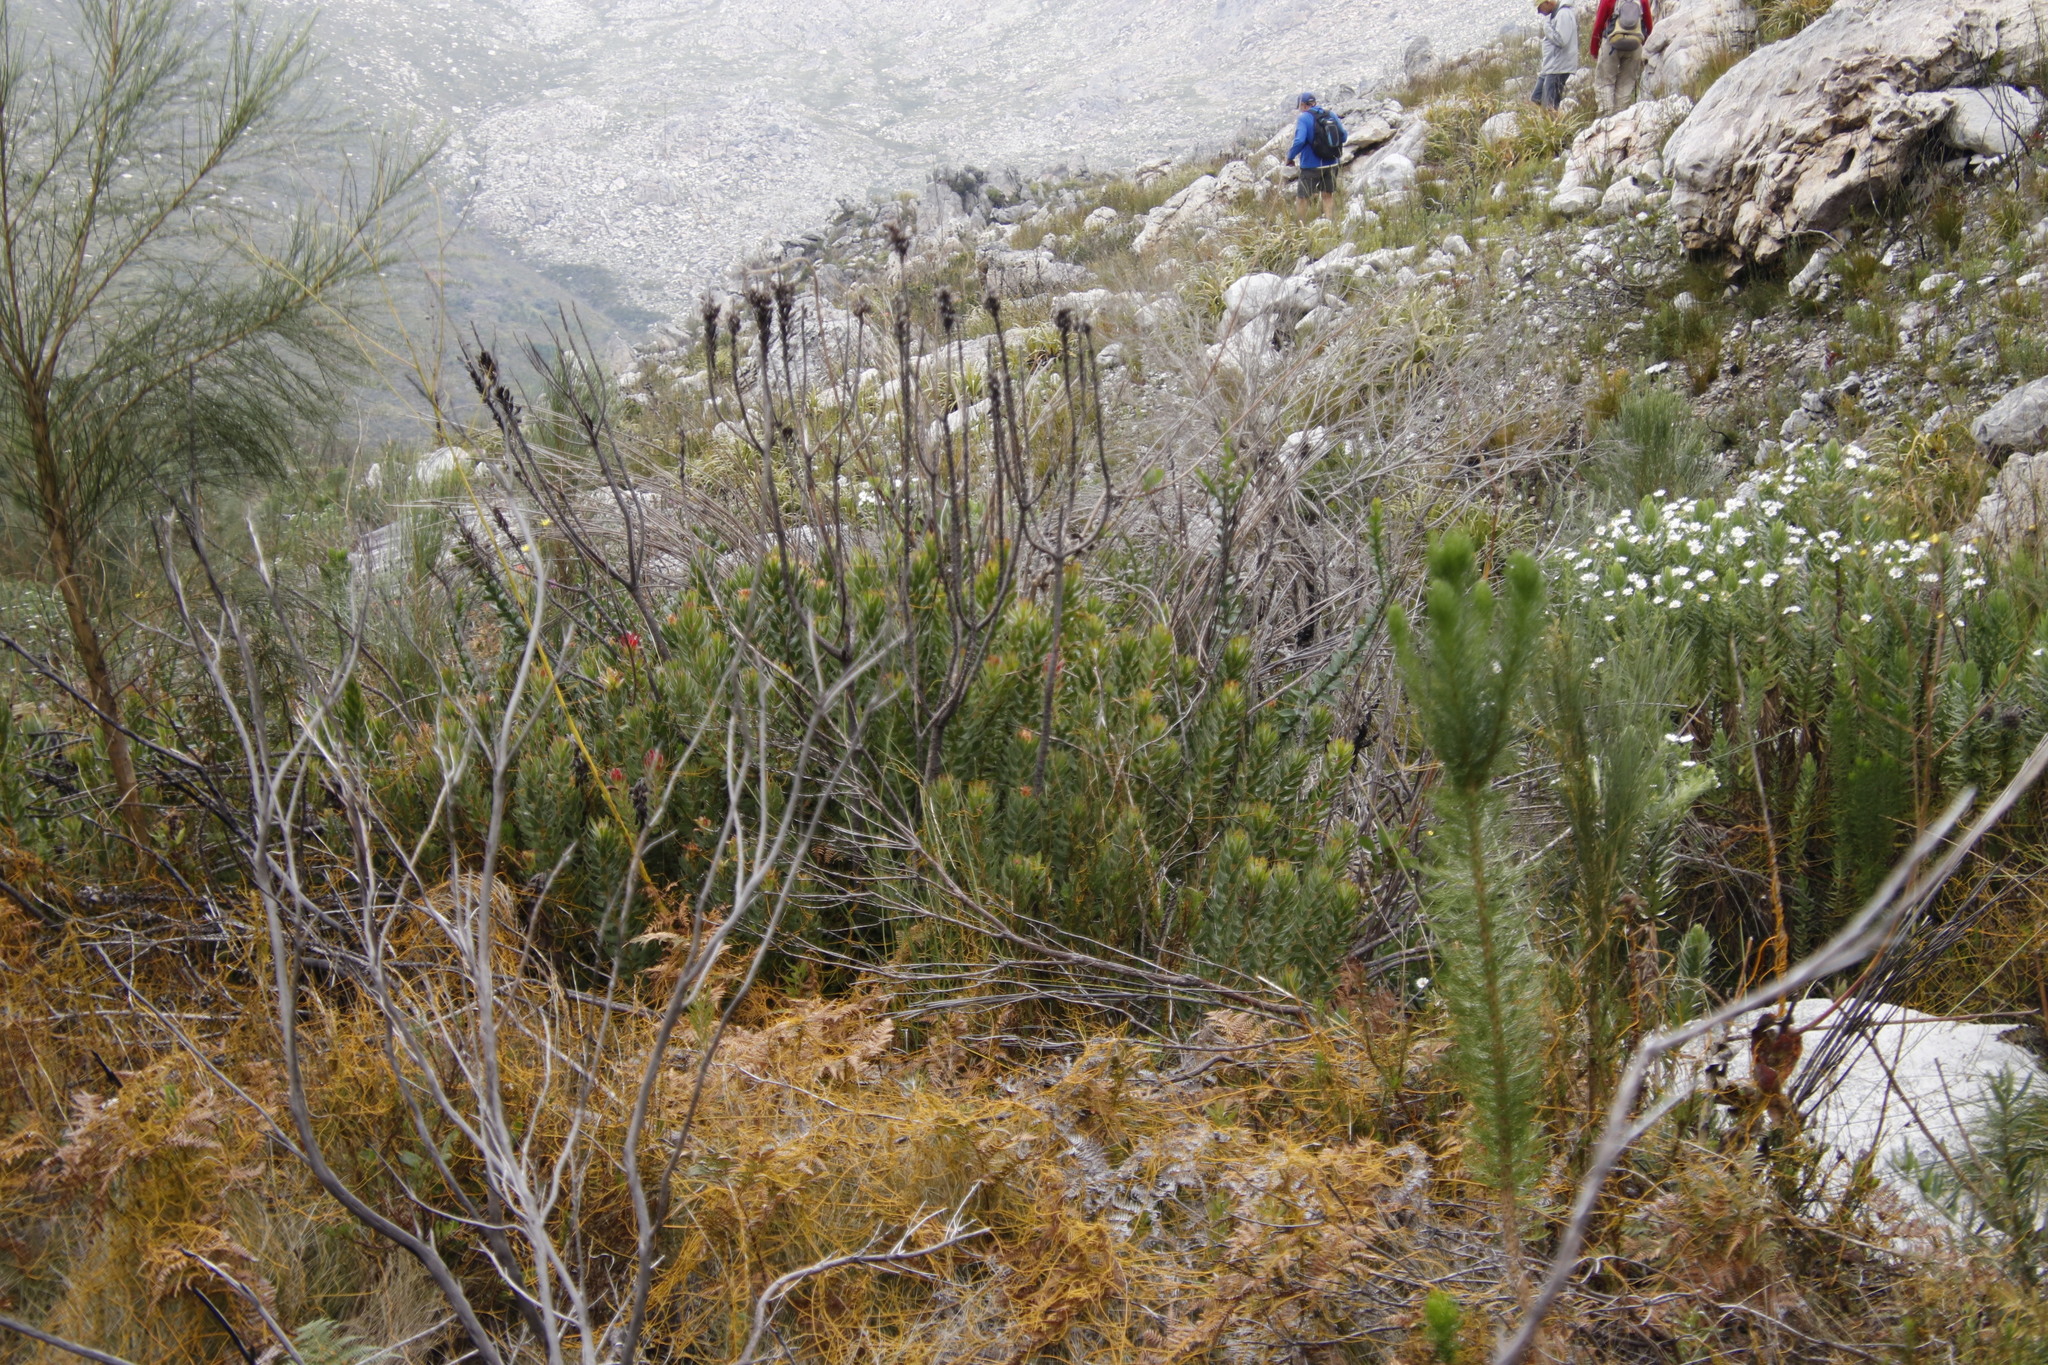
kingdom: Plantae
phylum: Tracheophyta
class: Magnoliopsida
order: Proteales
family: Proteaceae
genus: Mimetes
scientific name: Mimetes cucullatus
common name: Common pagoda
